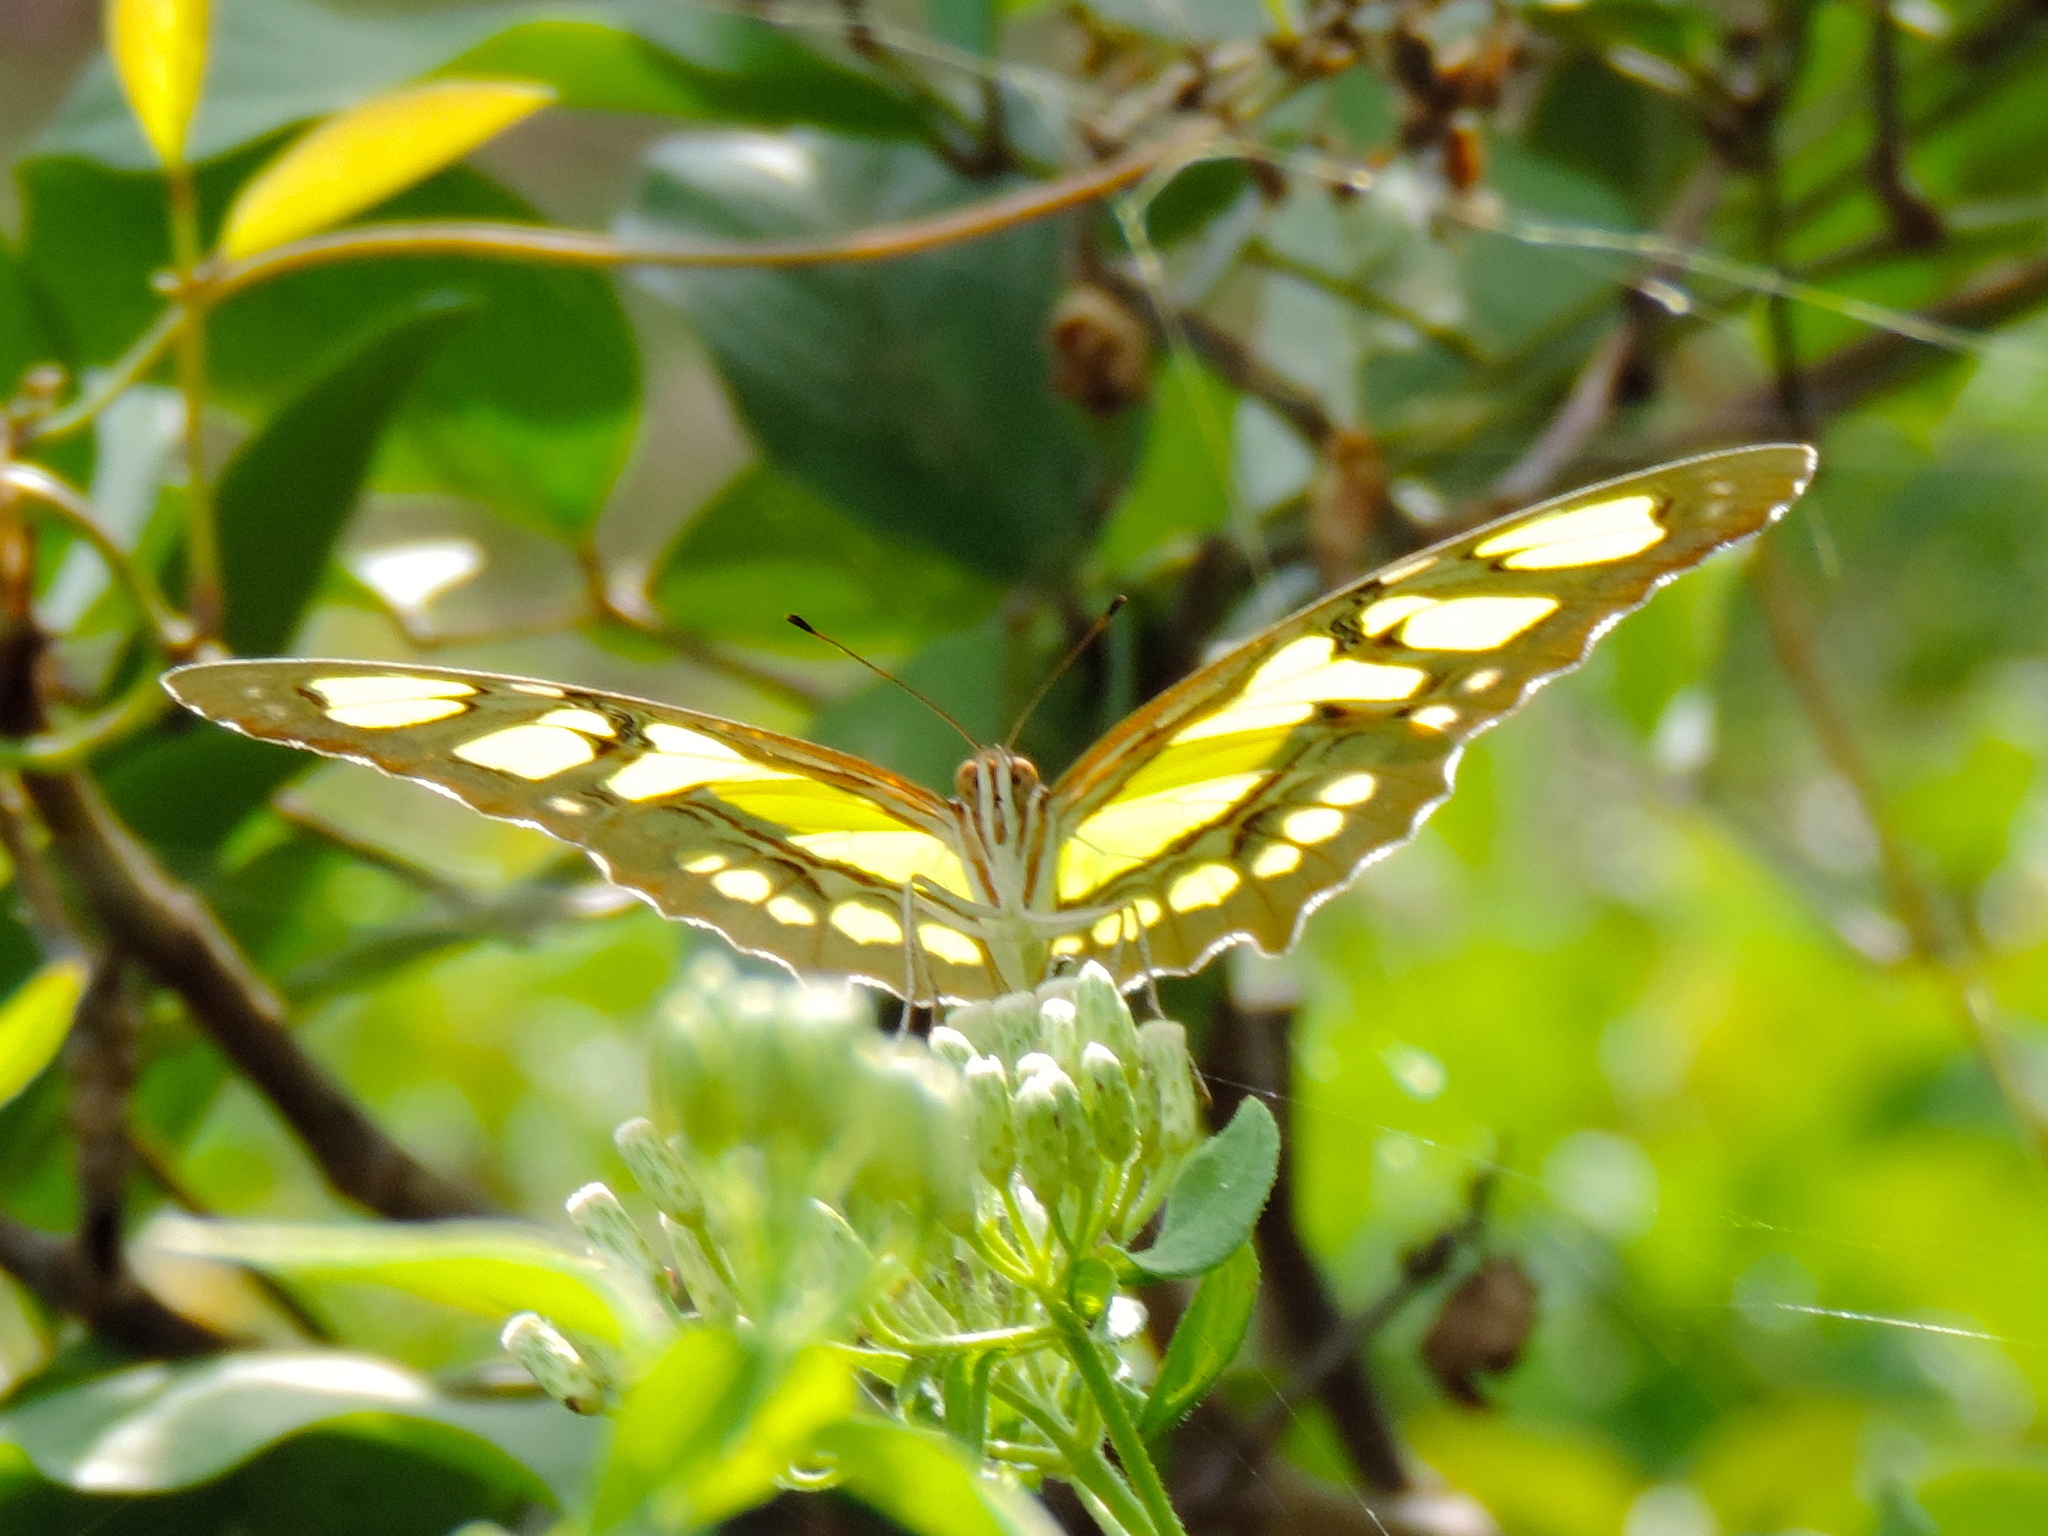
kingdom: Animalia
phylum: Arthropoda
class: Insecta
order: Lepidoptera
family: Nymphalidae
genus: Siproeta
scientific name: Siproeta stelenes
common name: Malachite
